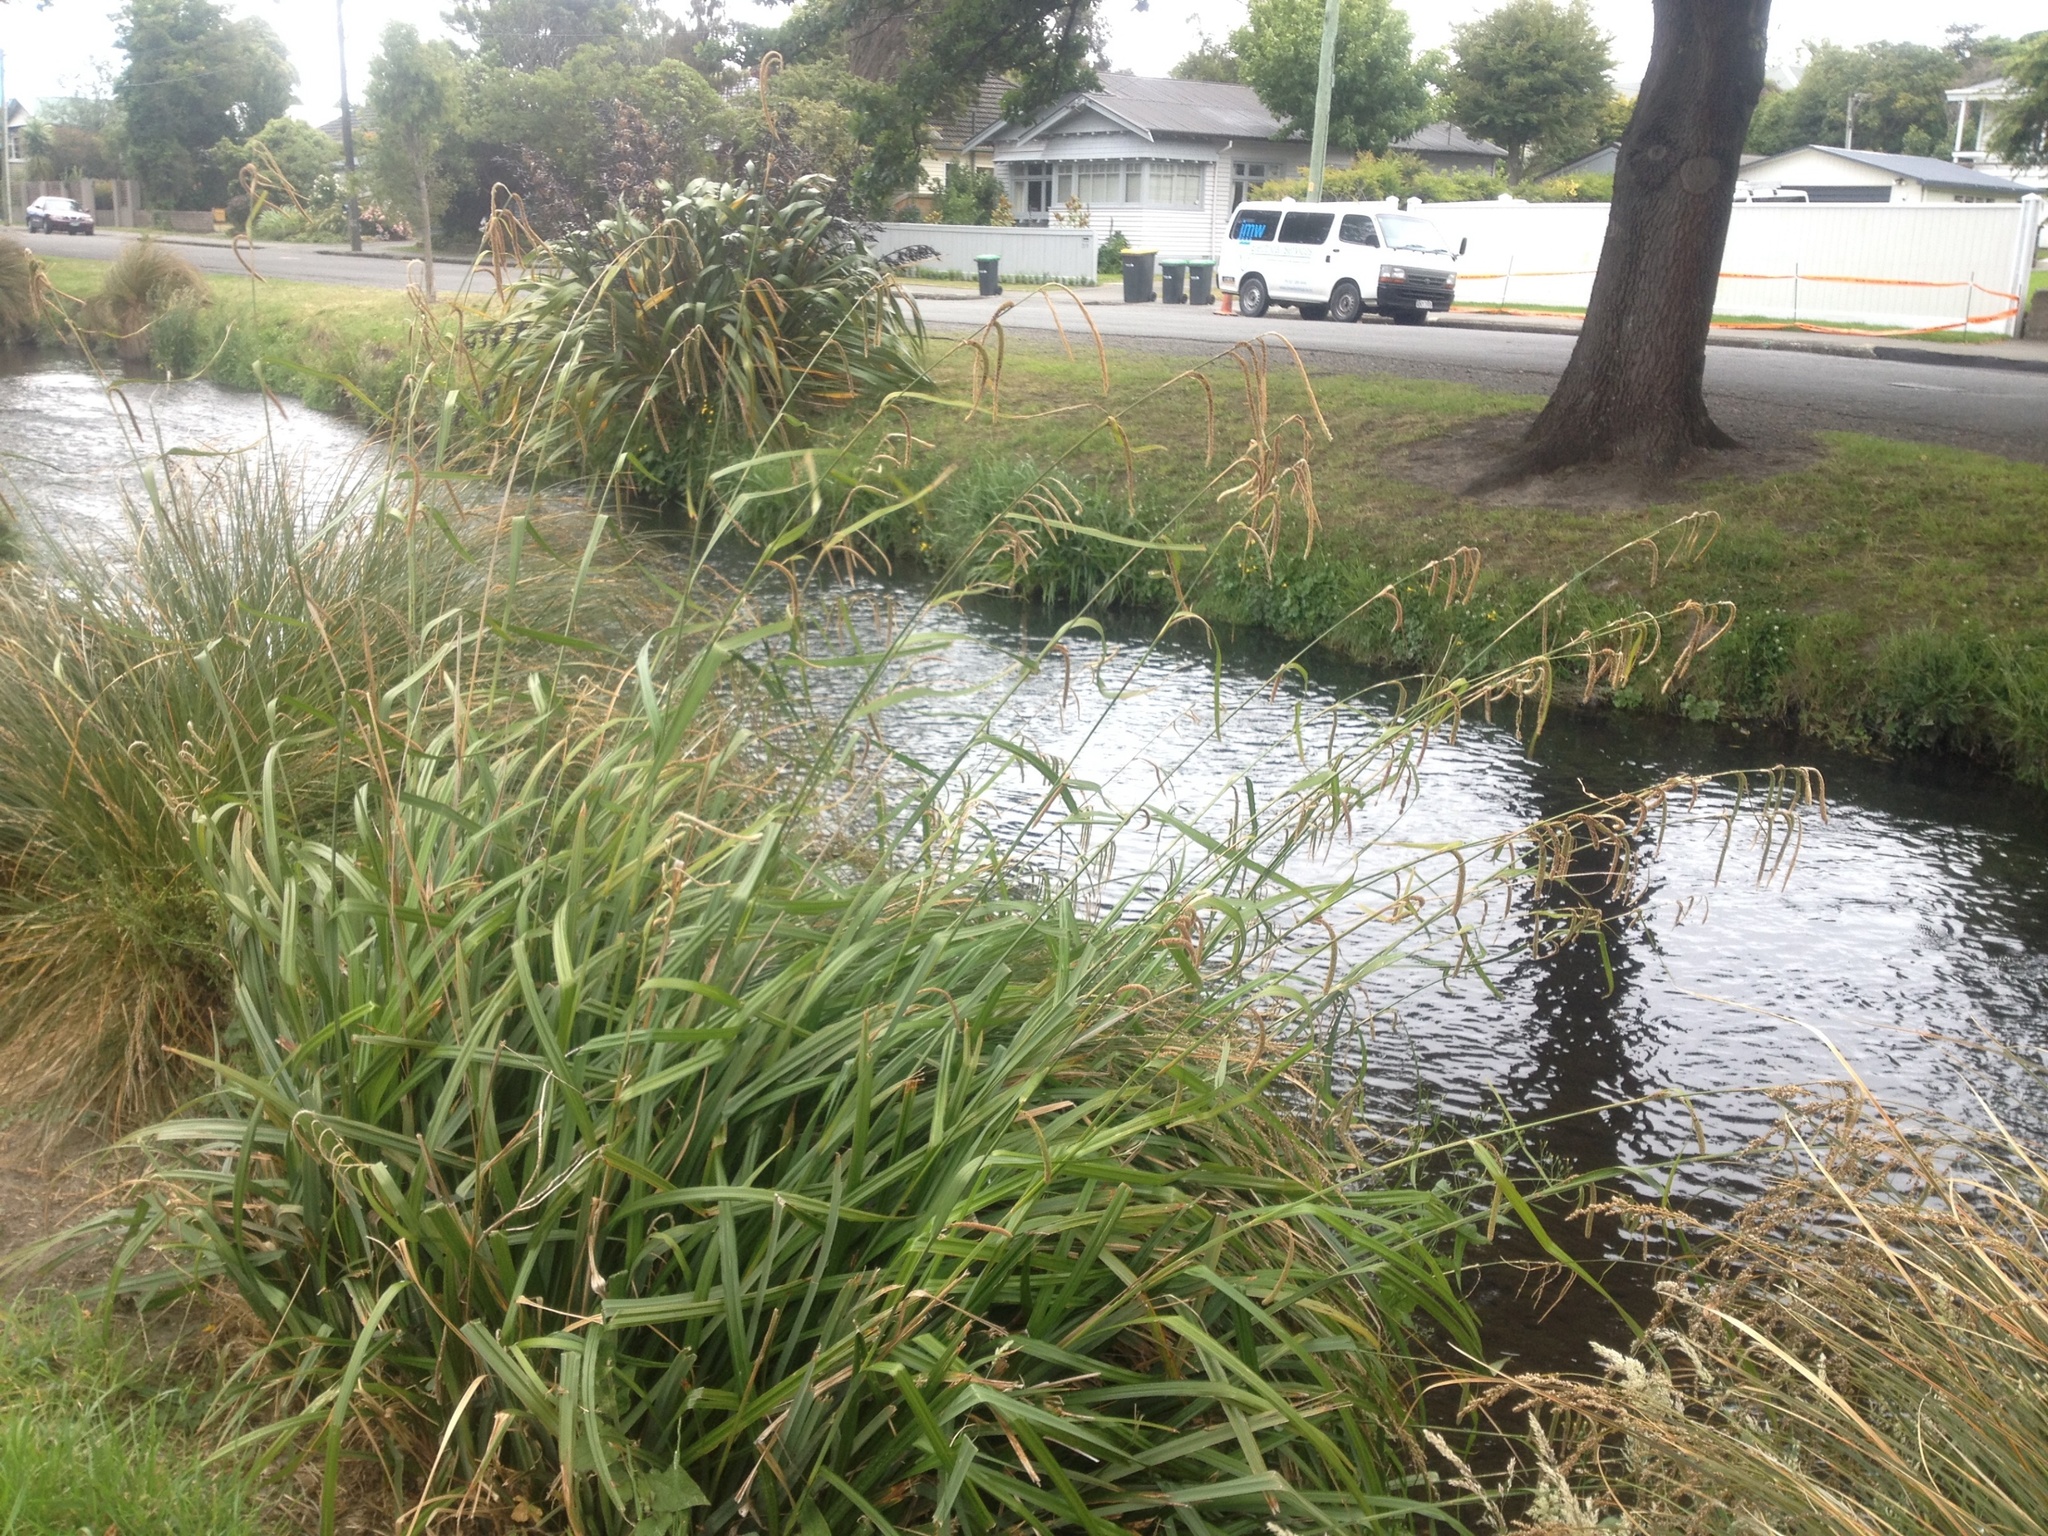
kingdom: Plantae
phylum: Tracheophyta
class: Liliopsida
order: Poales
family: Cyperaceae
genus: Carex
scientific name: Carex pendula
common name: Pendulous sedge
